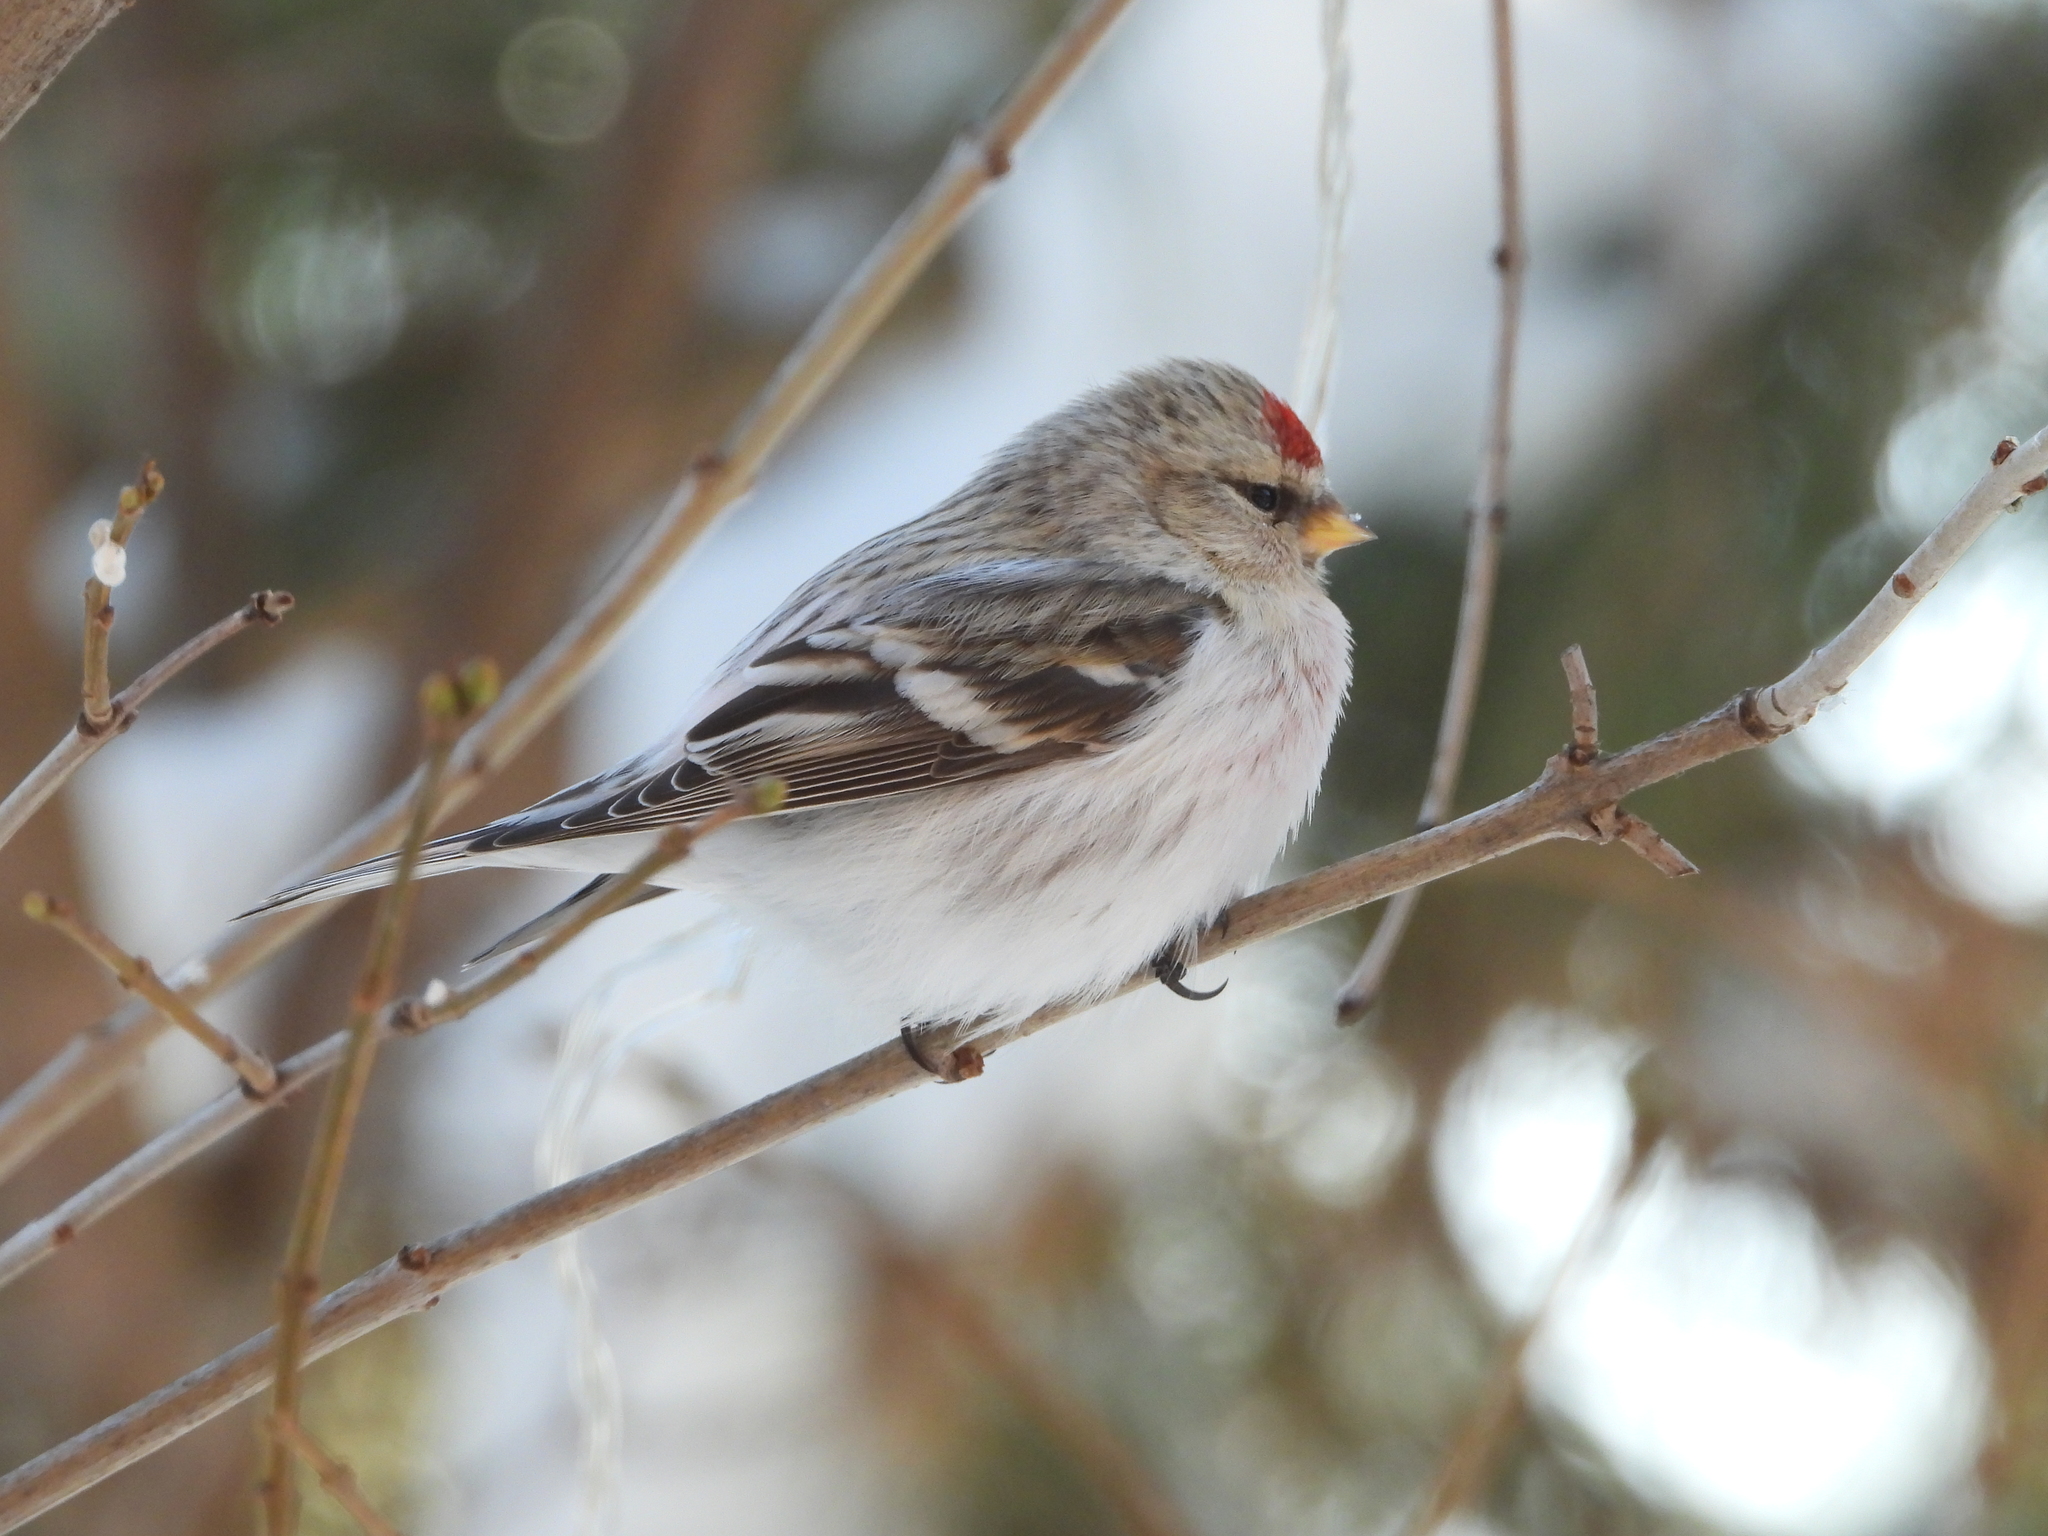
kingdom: Animalia
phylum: Chordata
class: Aves
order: Passeriformes
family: Fringillidae
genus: Acanthis
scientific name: Acanthis hornemanni
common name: Arctic redpoll
